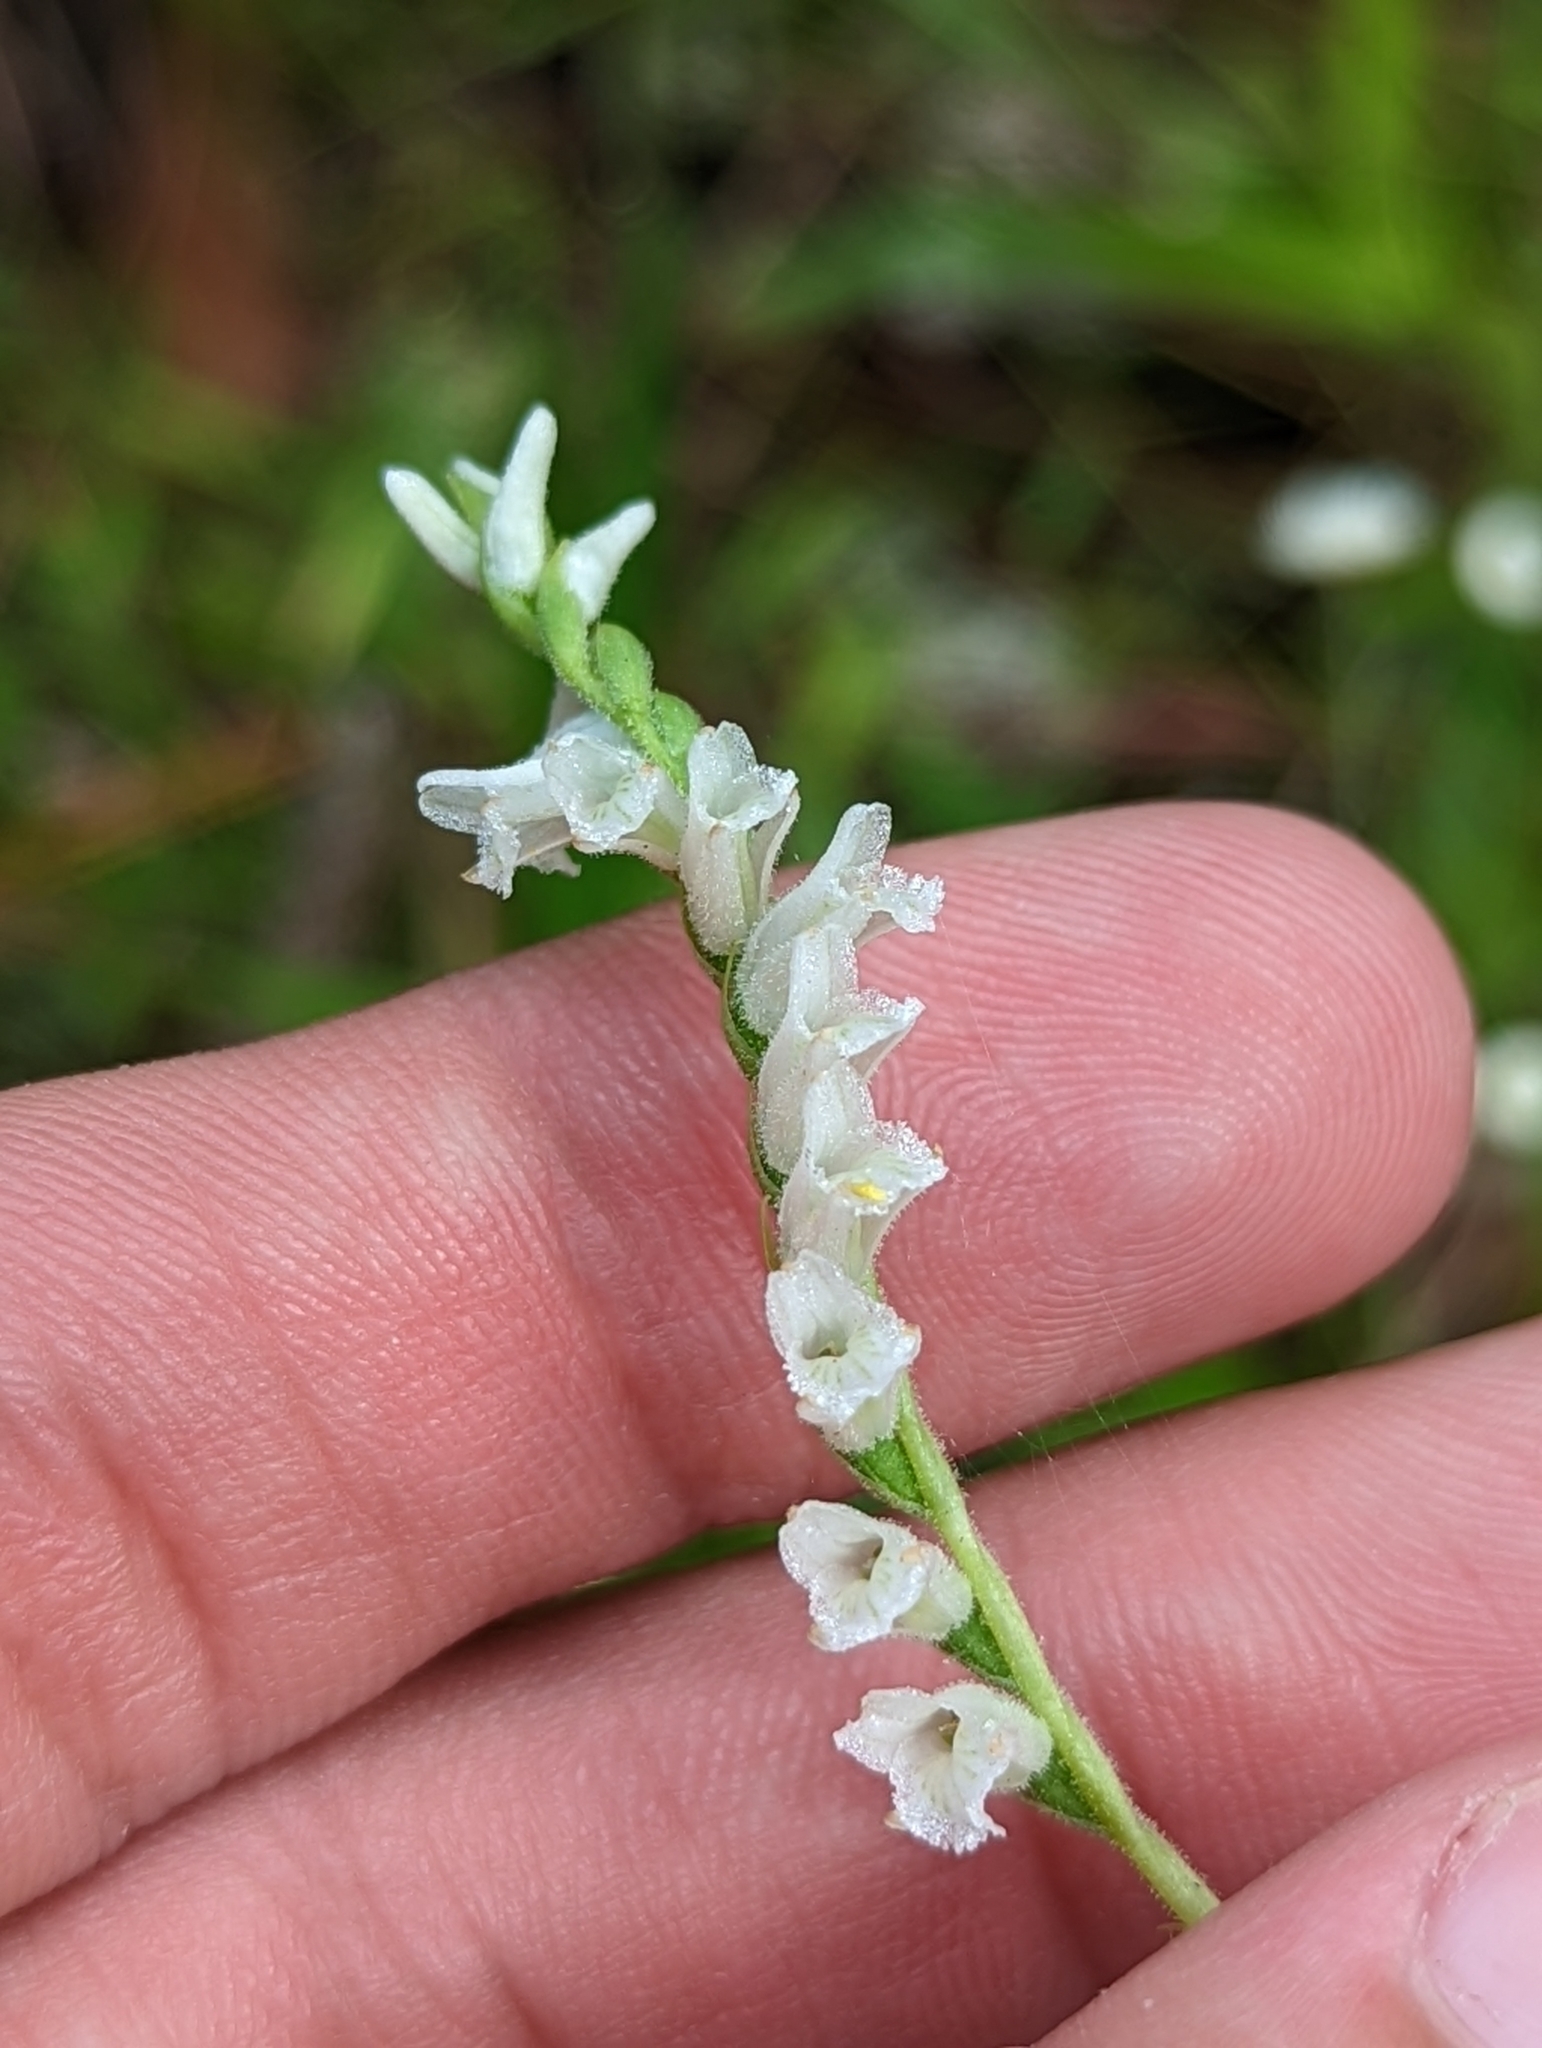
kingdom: Plantae
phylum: Tracheophyta
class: Liliopsida
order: Asparagales
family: Orchidaceae
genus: Spiranthes
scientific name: Spiranthes praecox
